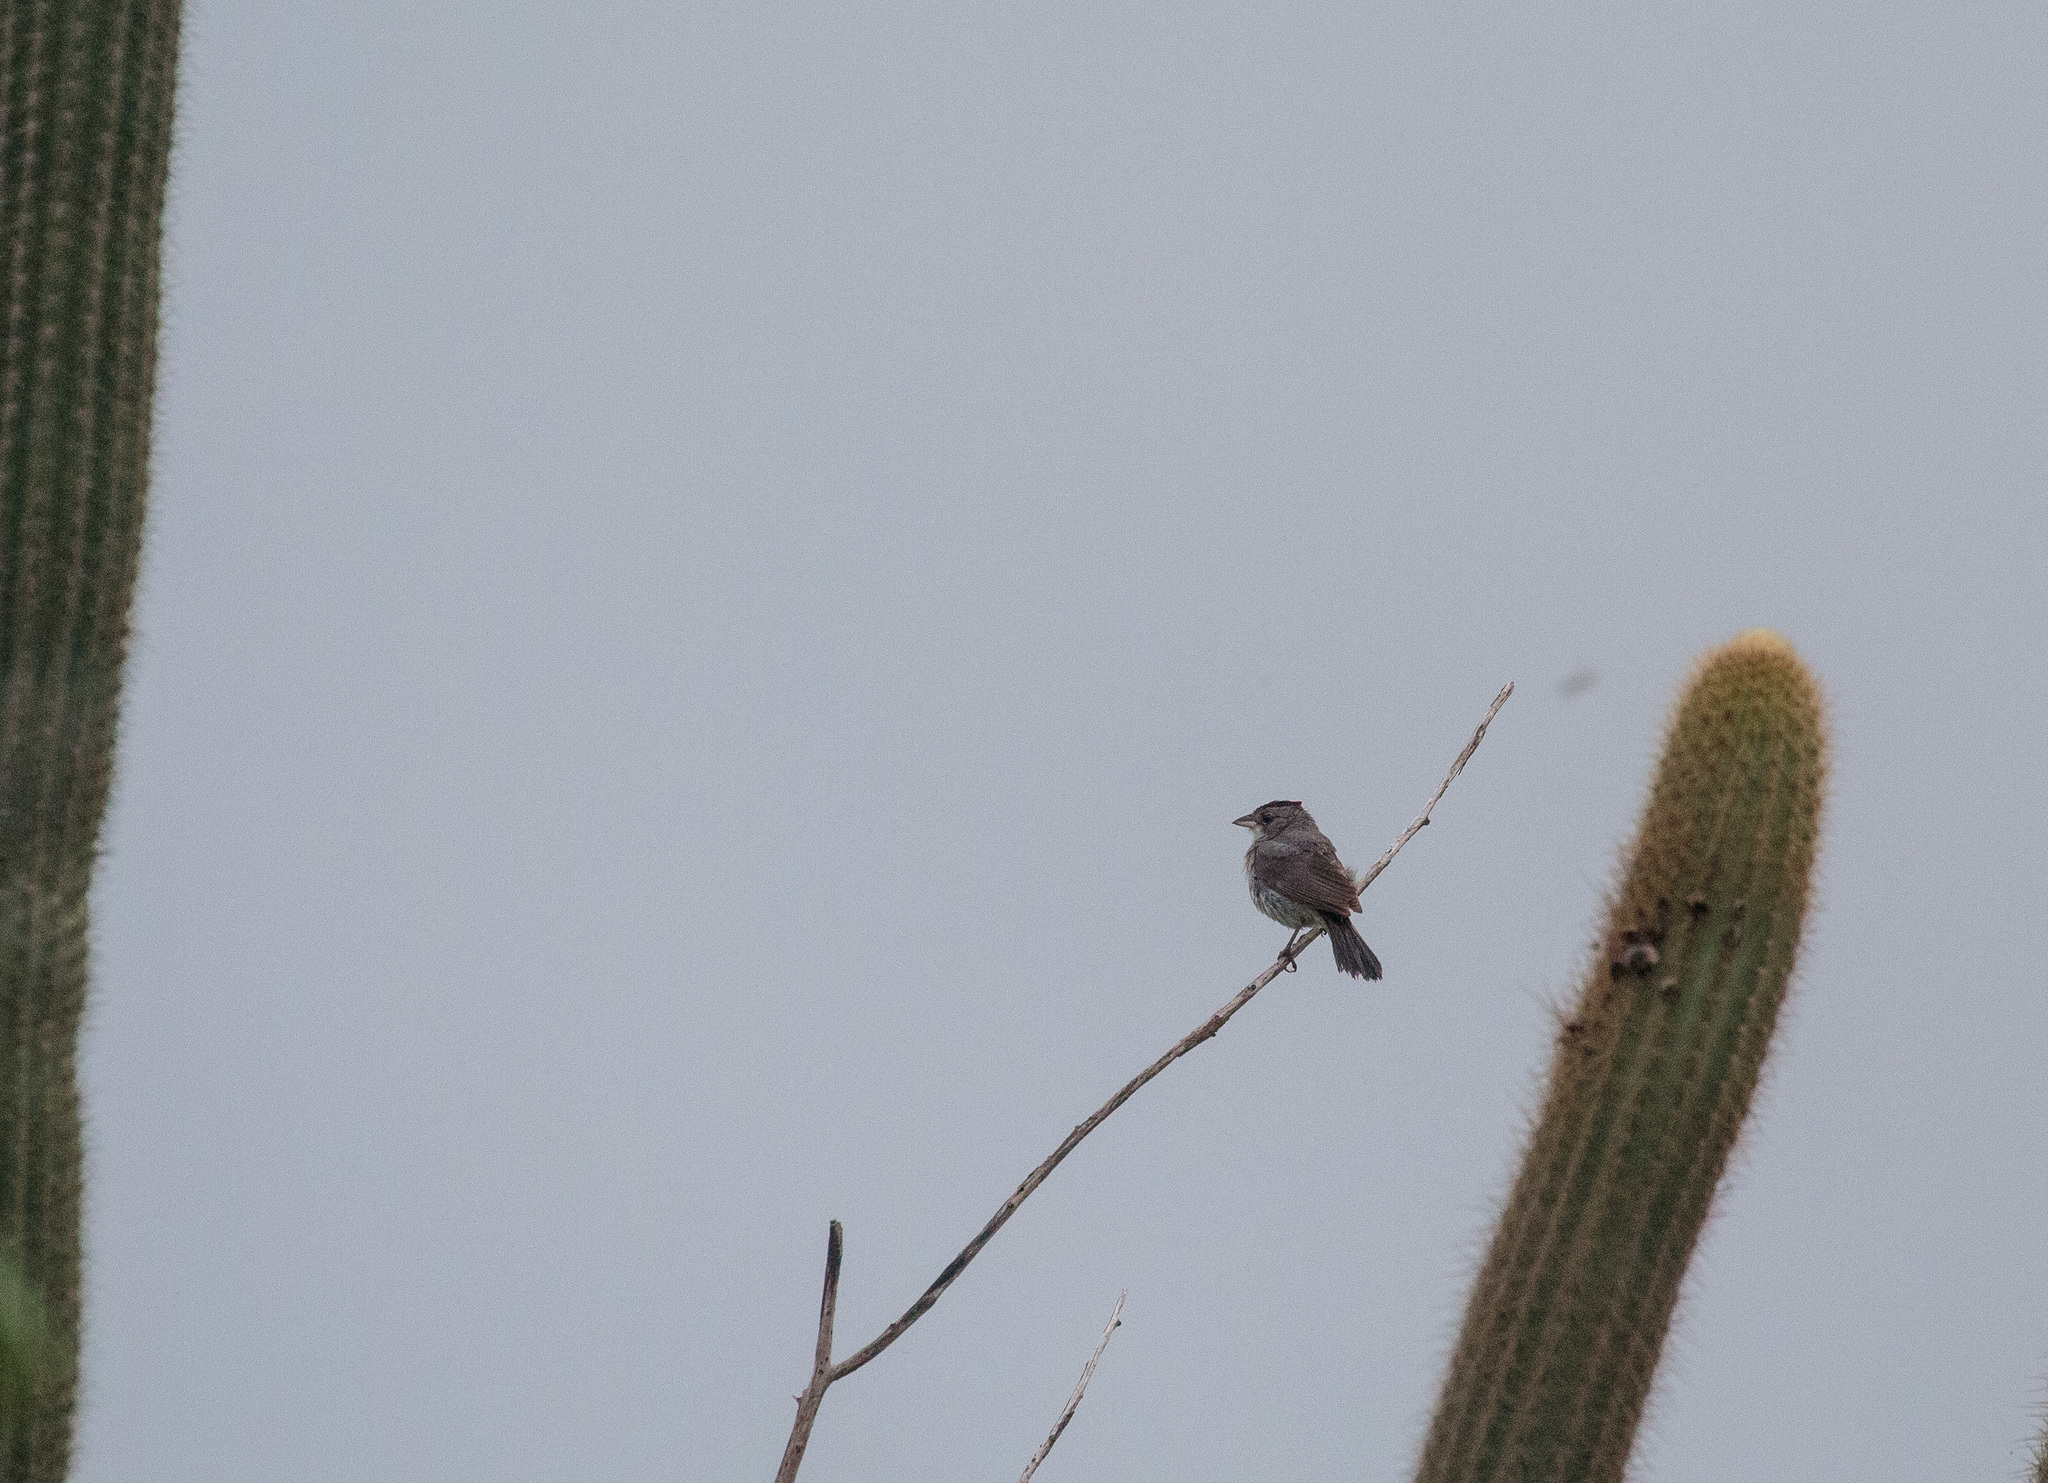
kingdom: Animalia
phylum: Chordata
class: Aves
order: Passeriformes
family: Thraupidae
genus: Coryphospingus
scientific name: Coryphospingus pileatus
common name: Grey pileated finch
